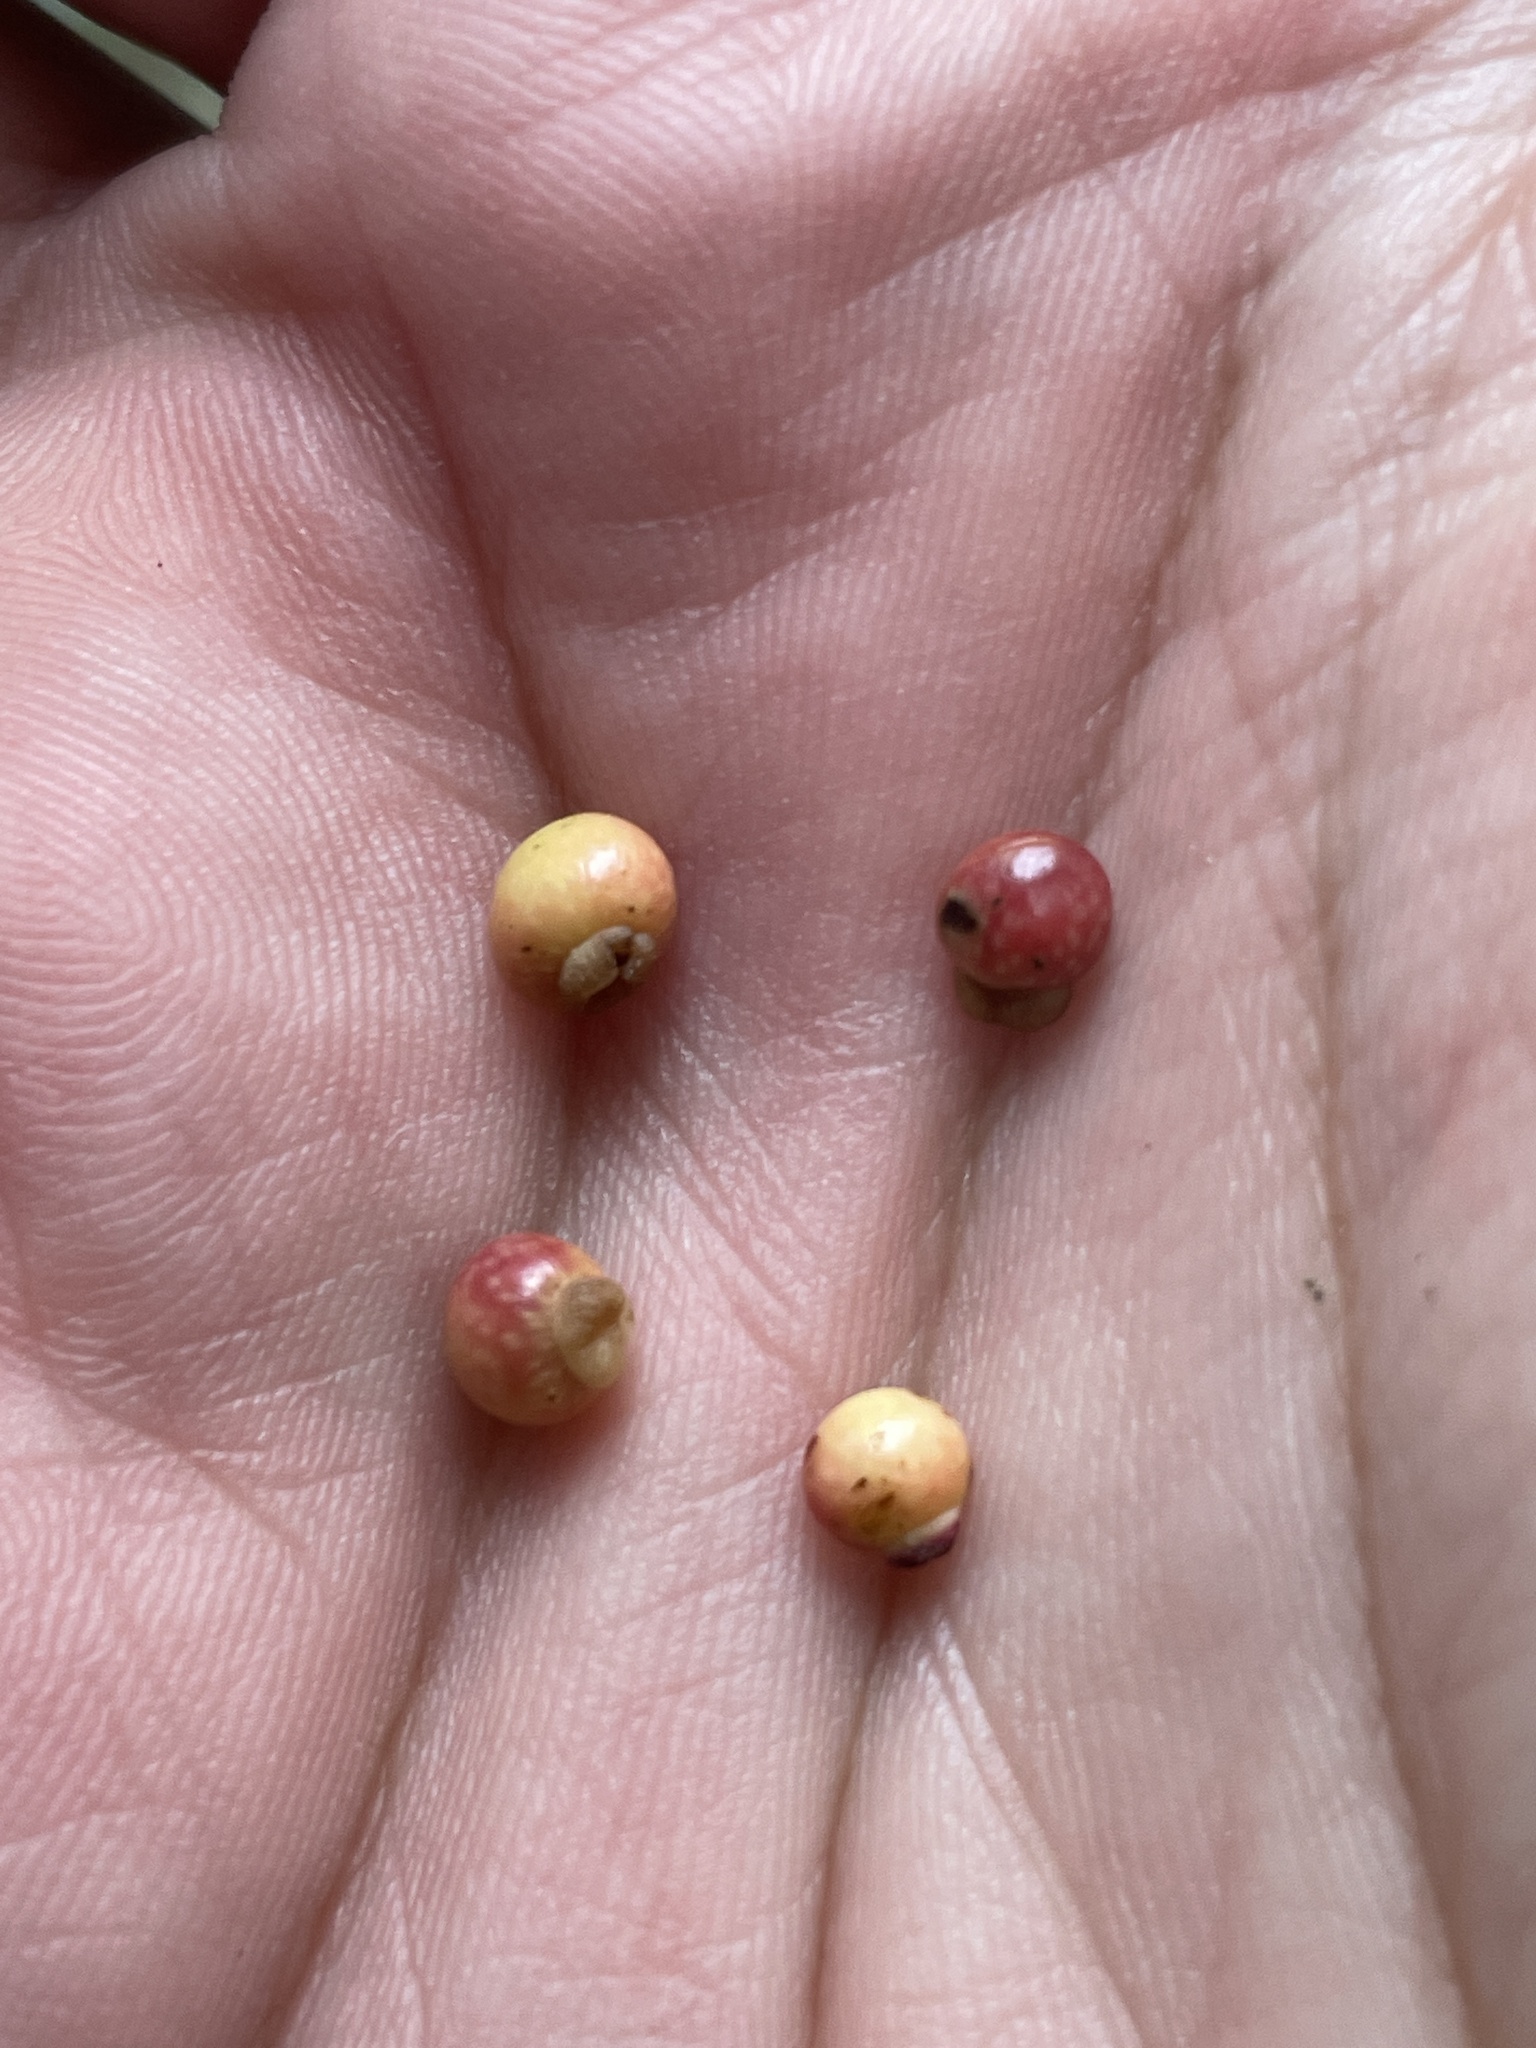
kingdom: Animalia
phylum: Arthropoda
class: Insecta
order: Hymenoptera
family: Cynipidae
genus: Kokkocynips
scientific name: Kokkocynips rileyi
